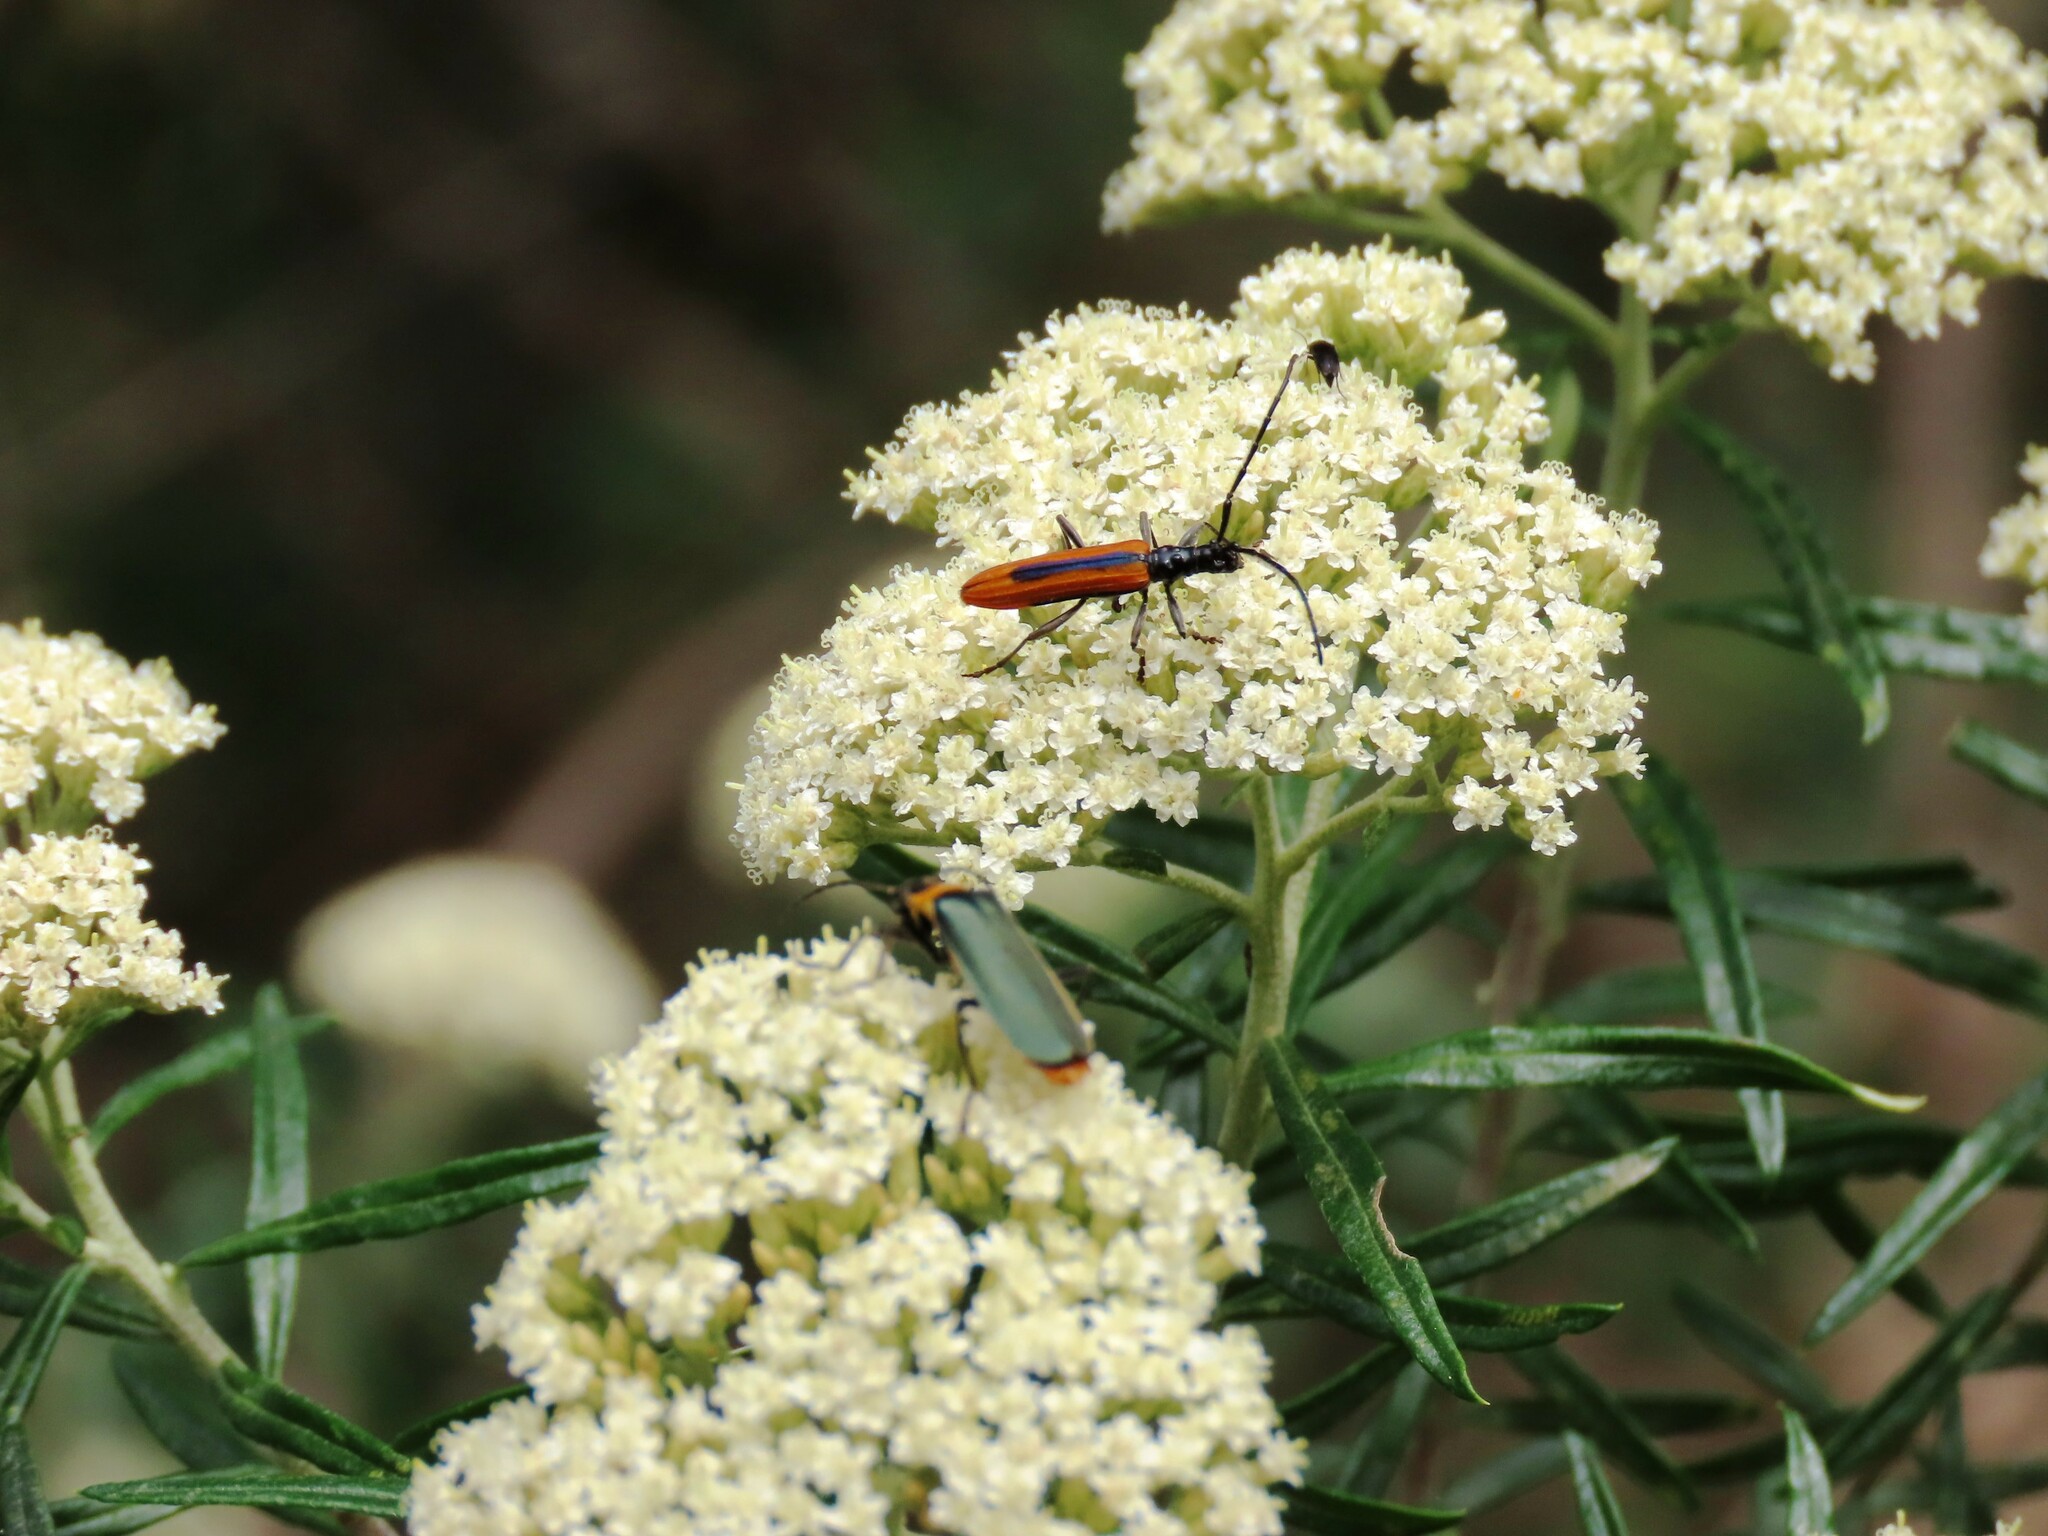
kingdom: Animalia
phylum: Arthropoda
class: Insecta
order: Coleoptera
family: Cerambycidae
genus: Stenoderus
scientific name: Stenoderus suturalis
